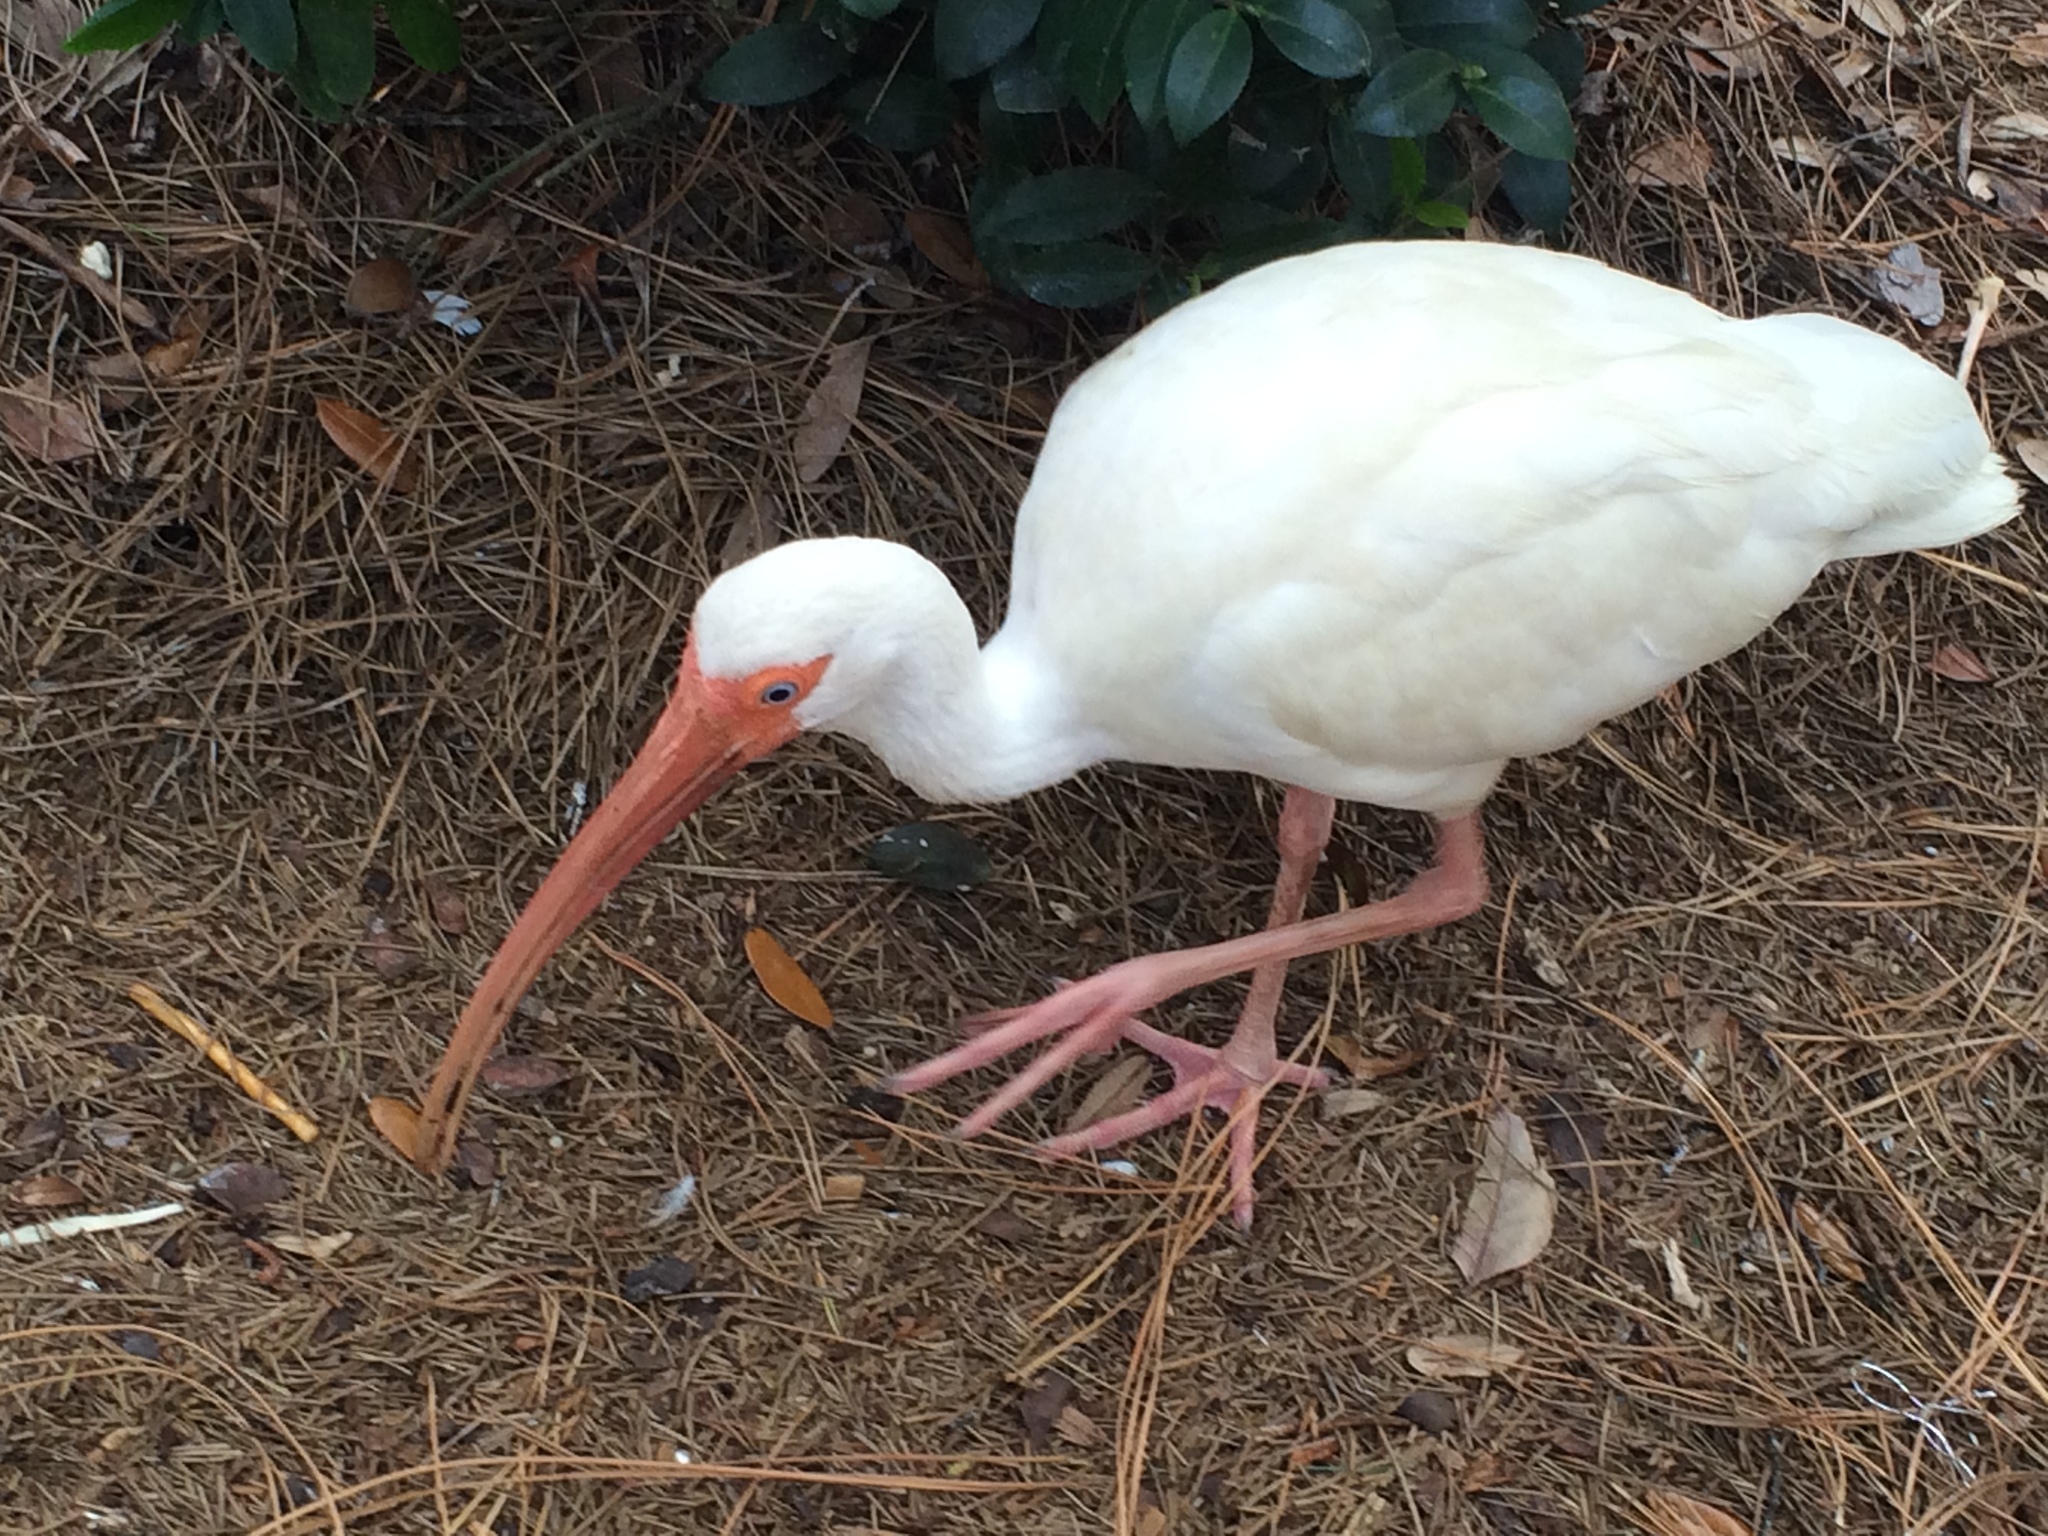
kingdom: Animalia
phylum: Chordata
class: Aves
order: Pelecaniformes
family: Threskiornithidae
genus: Eudocimus
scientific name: Eudocimus albus
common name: White ibis
